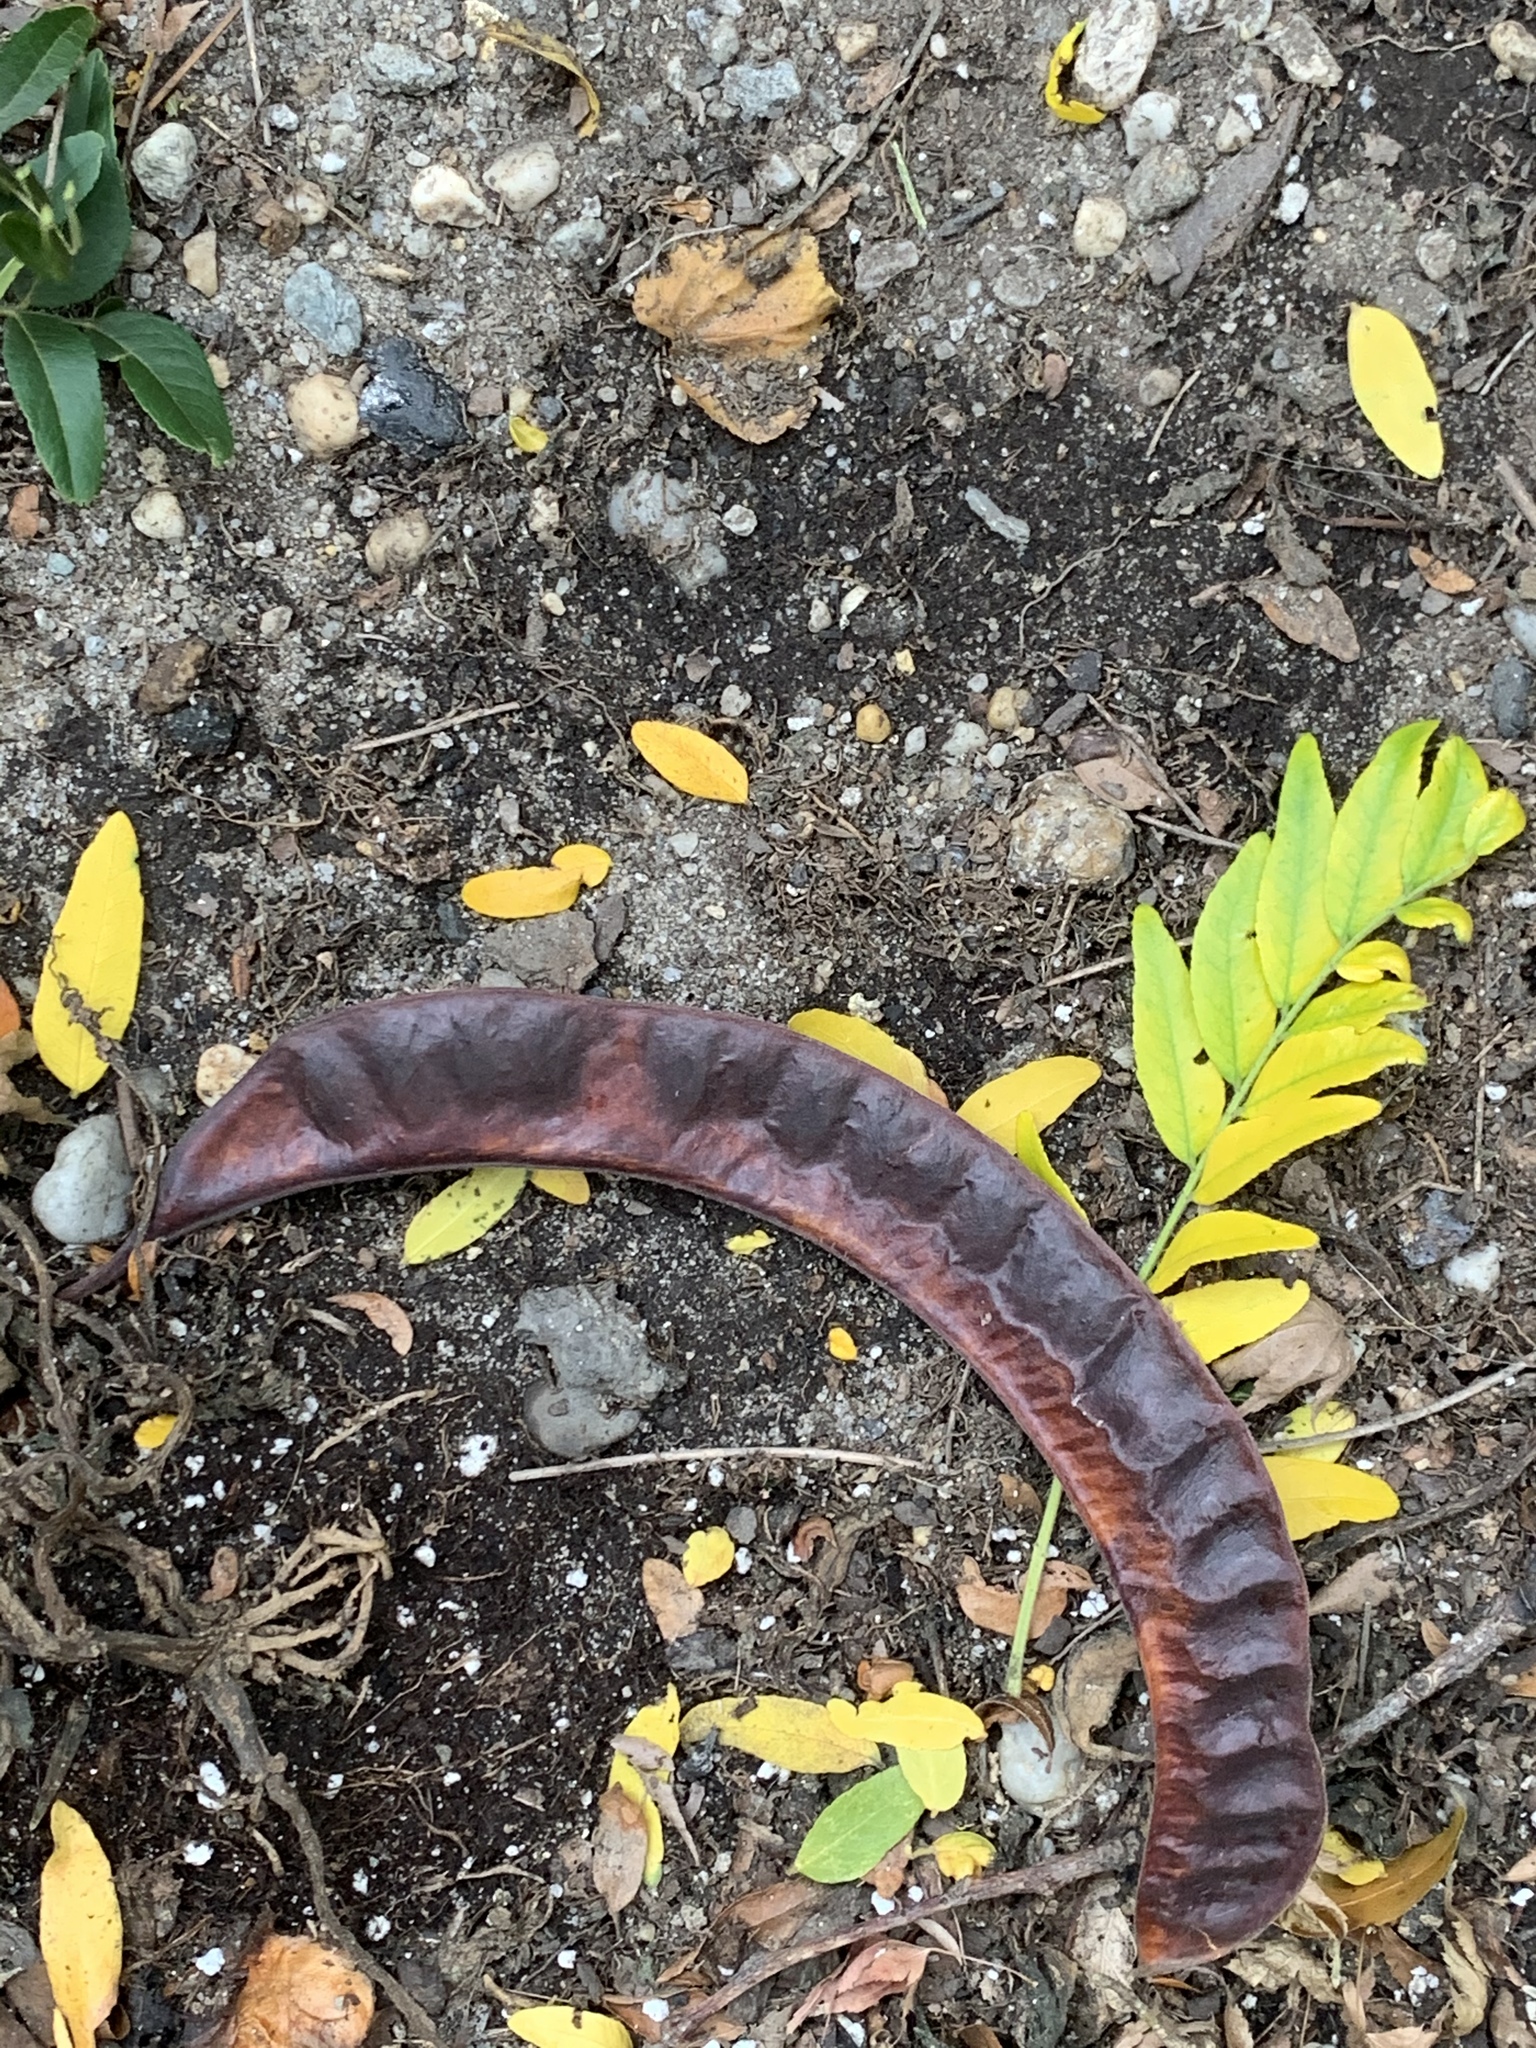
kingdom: Plantae
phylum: Tracheophyta
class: Magnoliopsida
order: Fabales
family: Fabaceae
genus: Gleditsia
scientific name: Gleditsia triacanthos
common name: Common honeylocust
